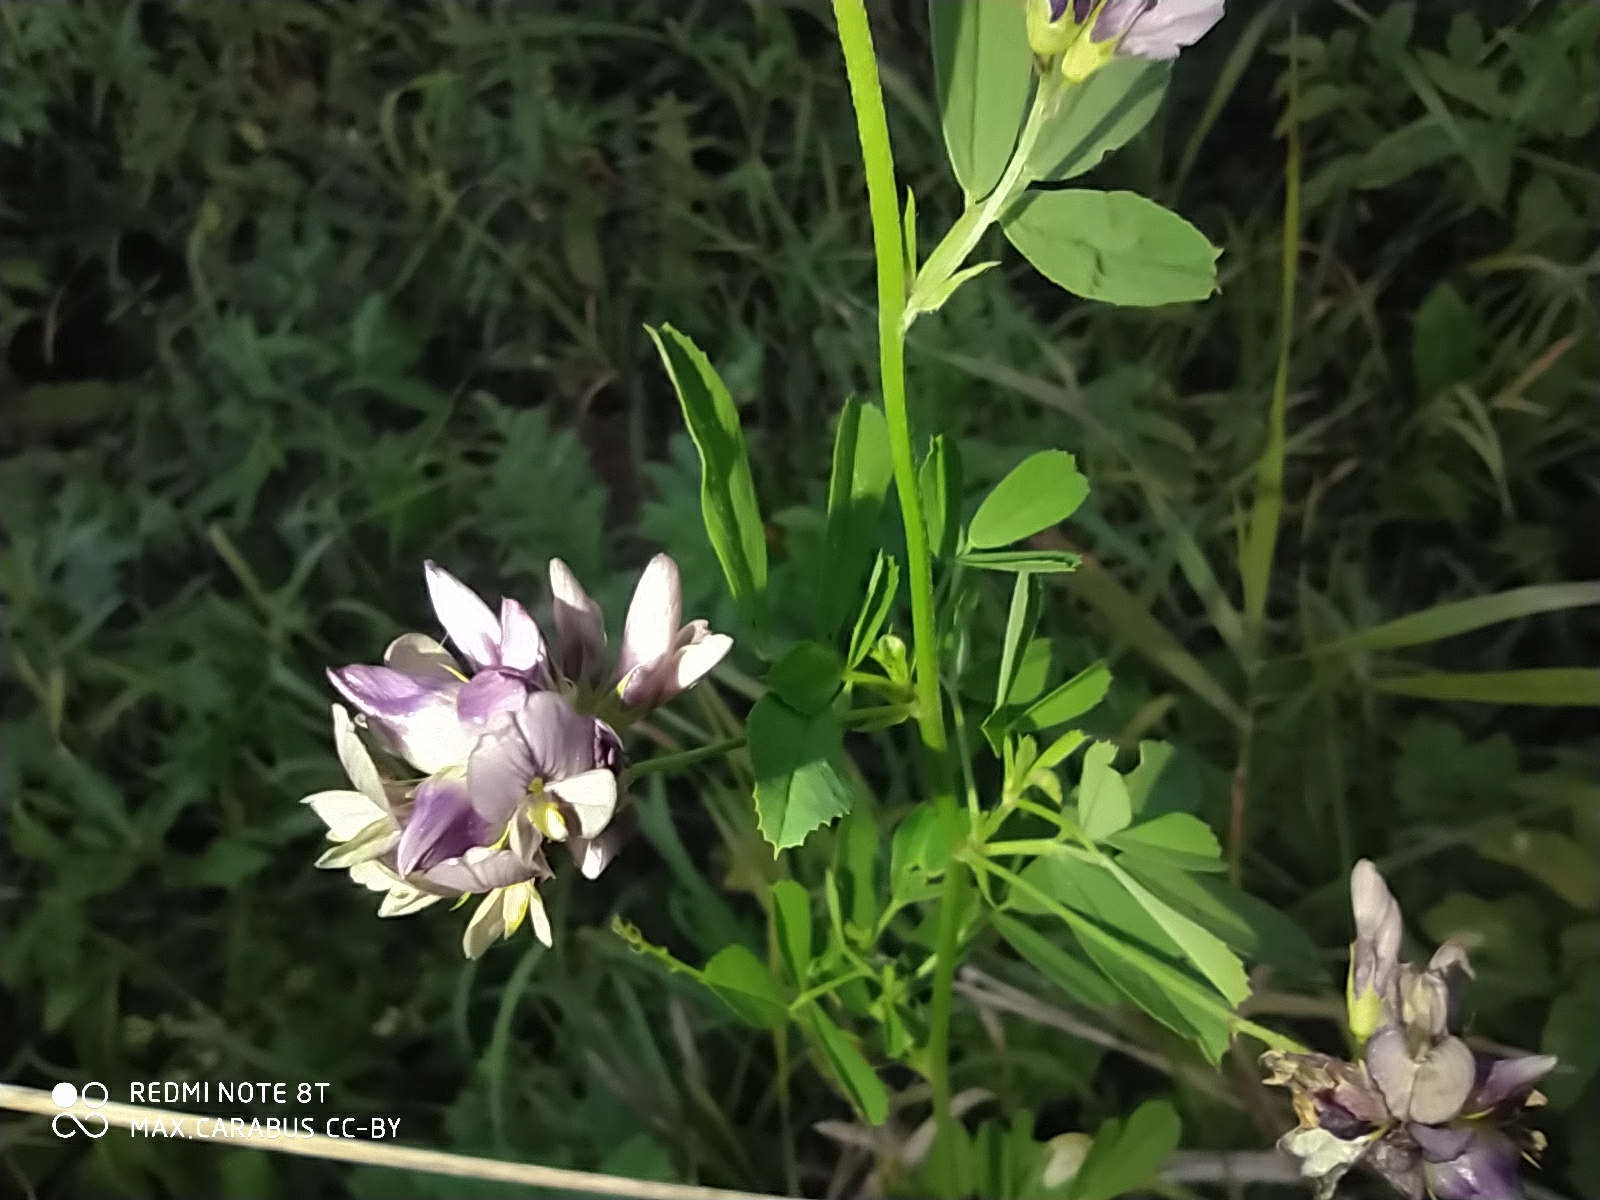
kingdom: Plantae
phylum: Tracheophyta
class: Magnoliopsida
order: Fabales
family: Fabaceae
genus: Medicago
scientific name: Medicago varia
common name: Sand lucerne
